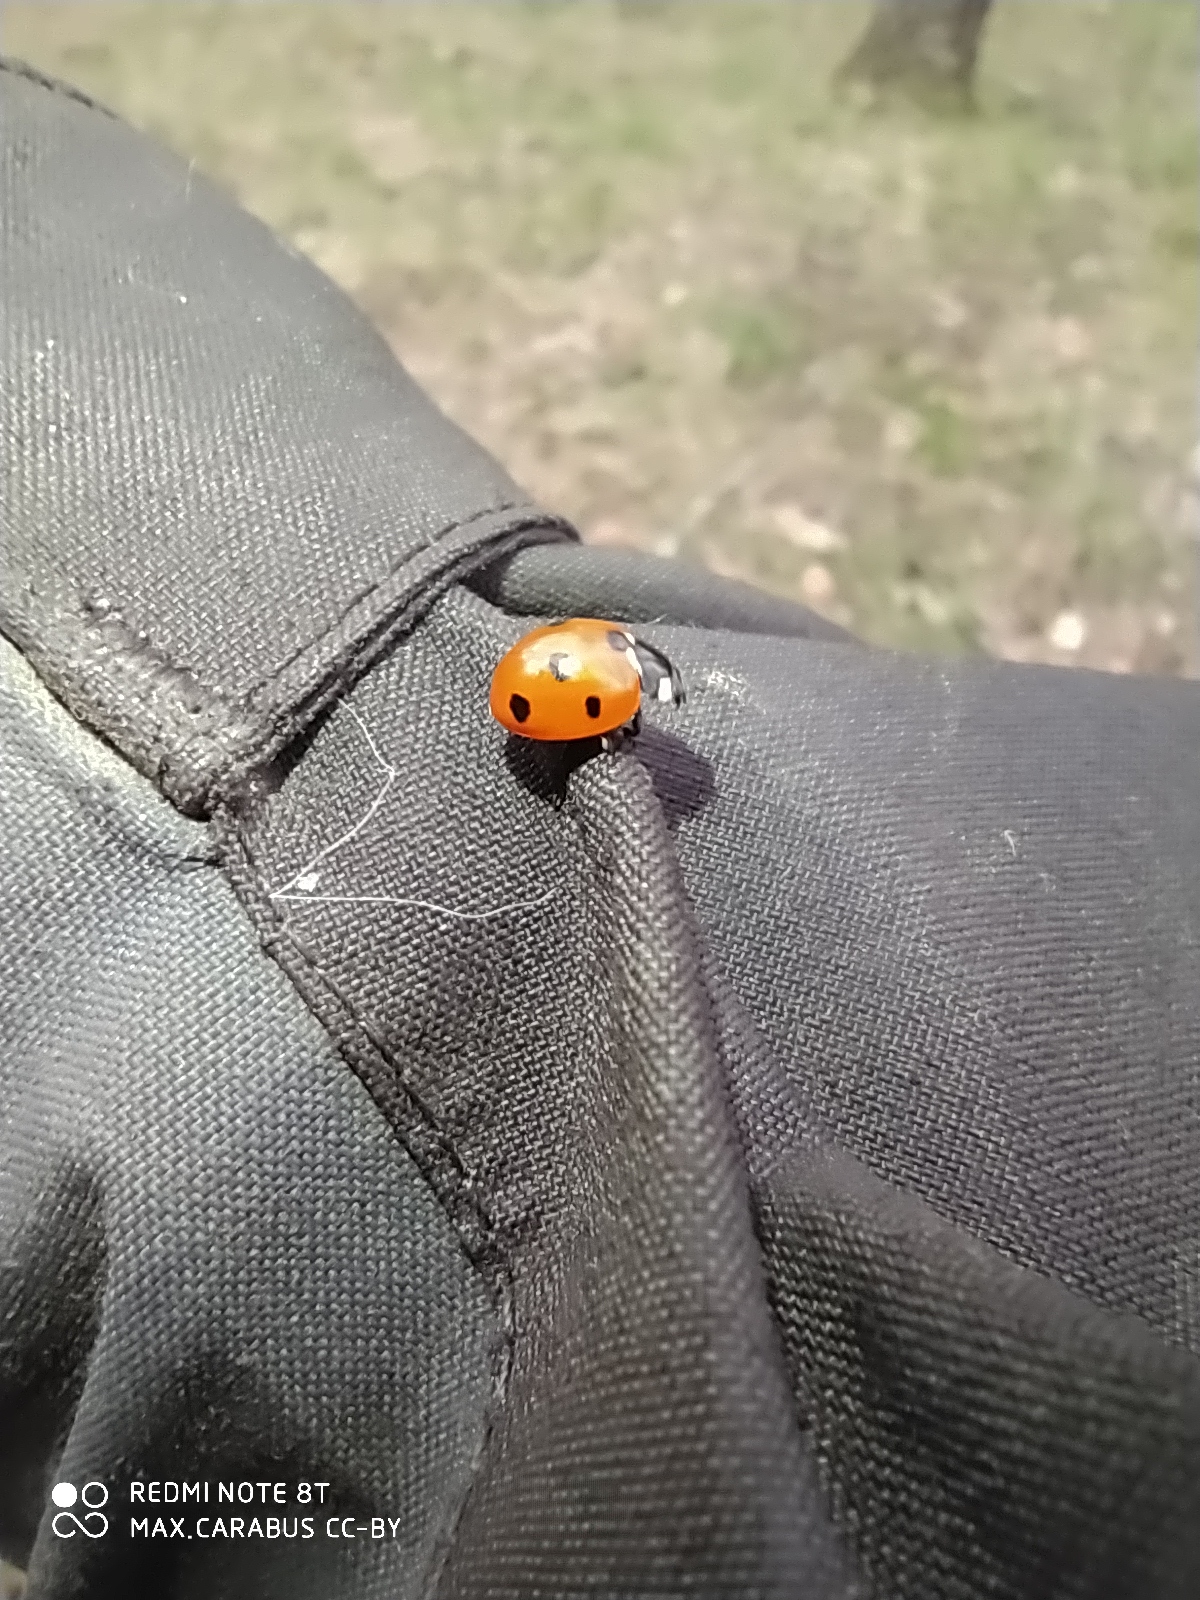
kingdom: Animalia
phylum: Arthropoda
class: Insecta
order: Coleoptera
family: Coccinellidae
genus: Coccinella
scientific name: Coccinella septempunctata
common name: Sevenspotted lady beetle
